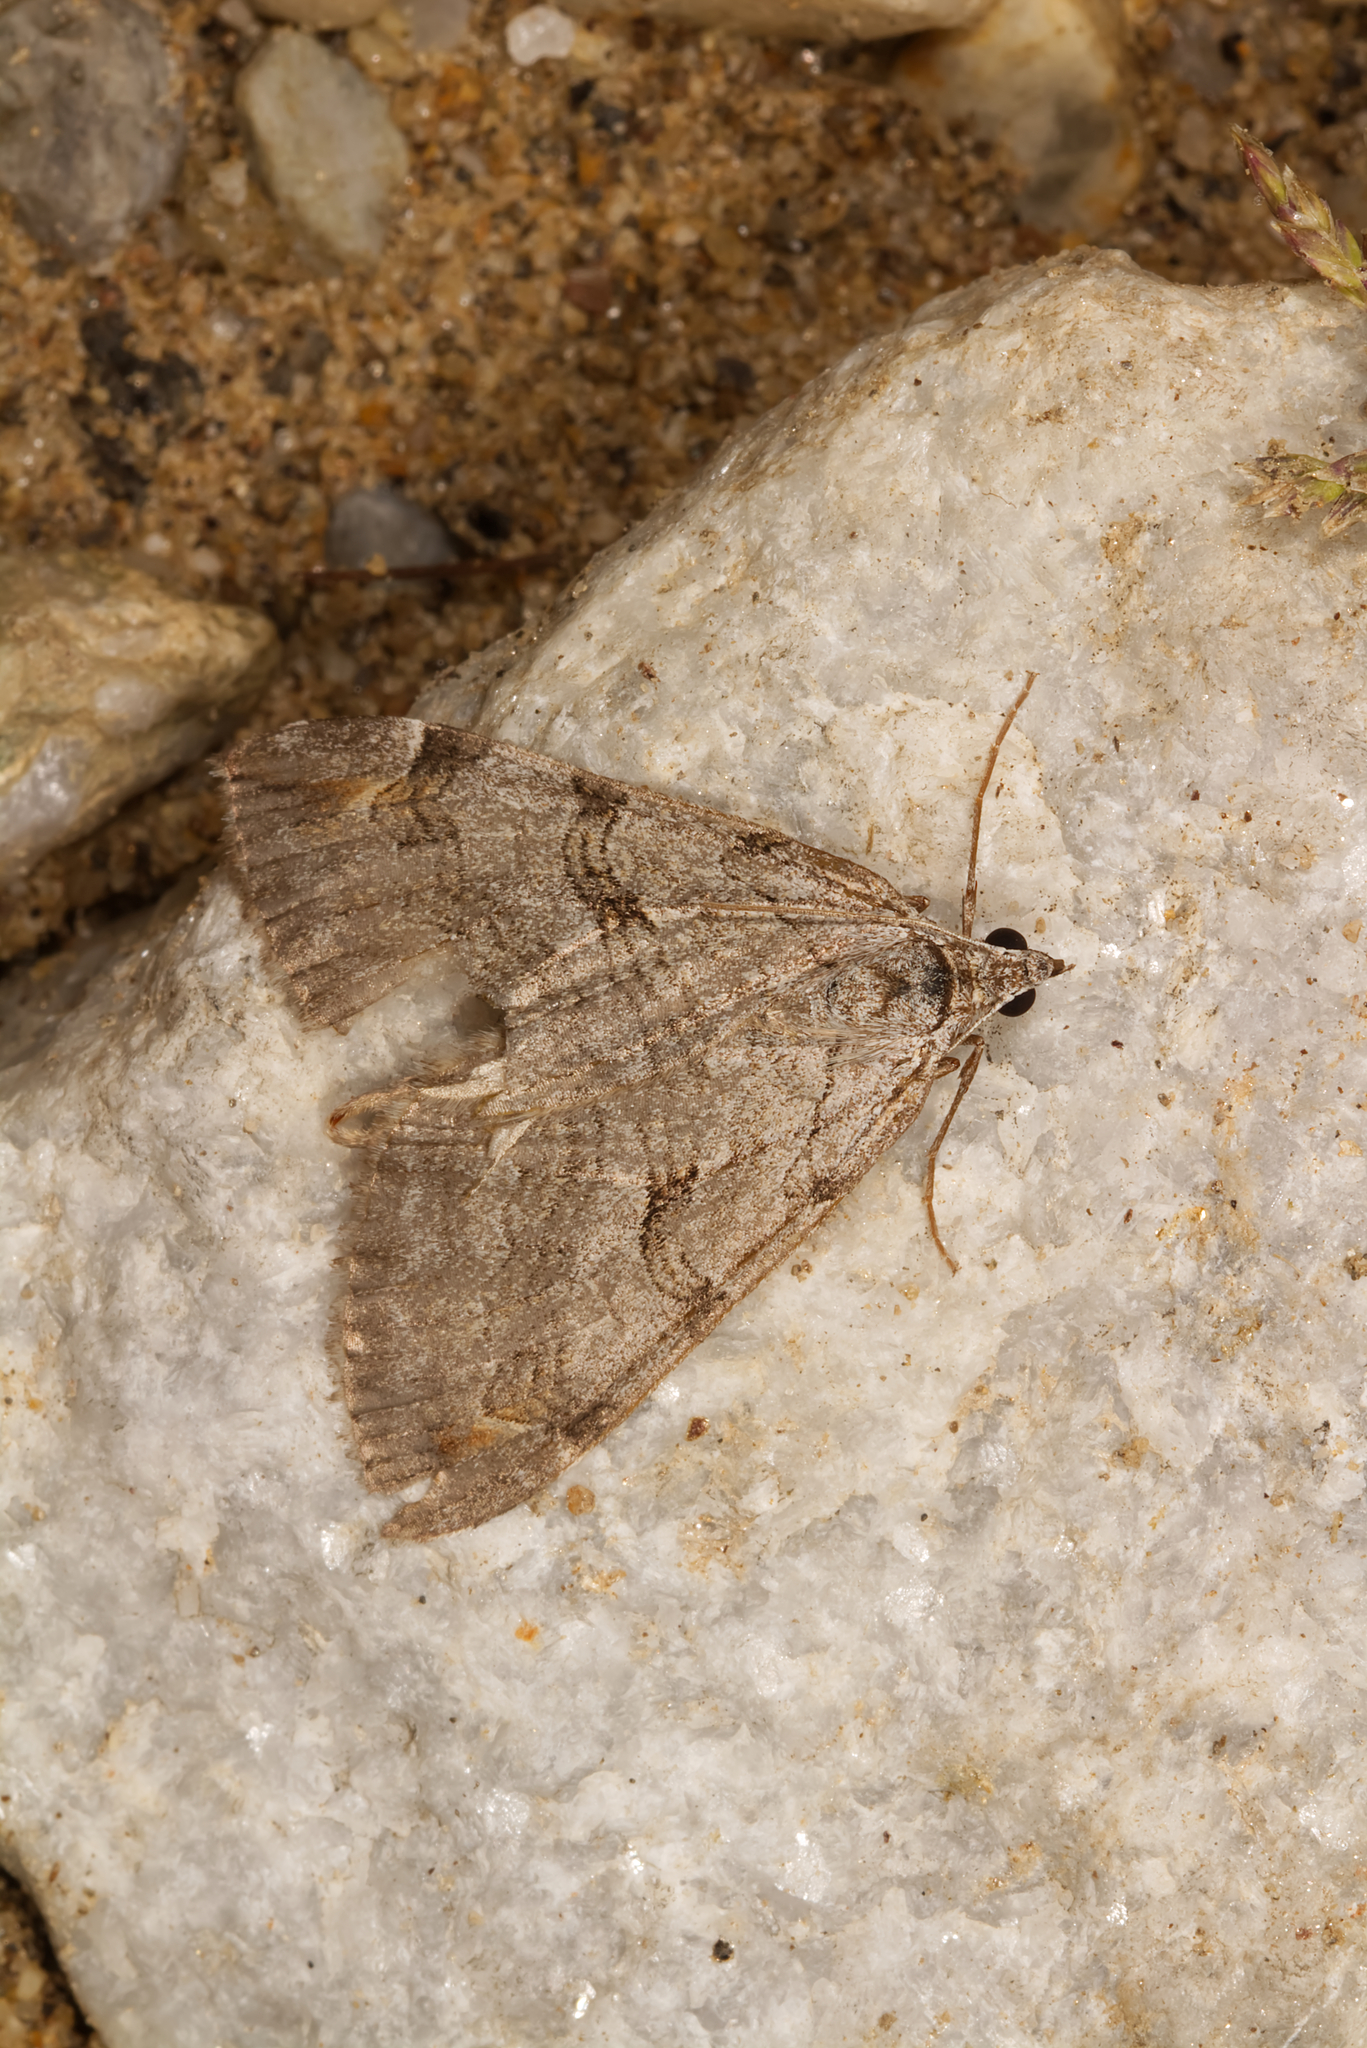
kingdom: Animalia
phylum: Arthropoda
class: Insecta
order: Lepidoptera
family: Geometridae
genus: Aplocera
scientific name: Aplocera plagiata
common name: Treble-bar
